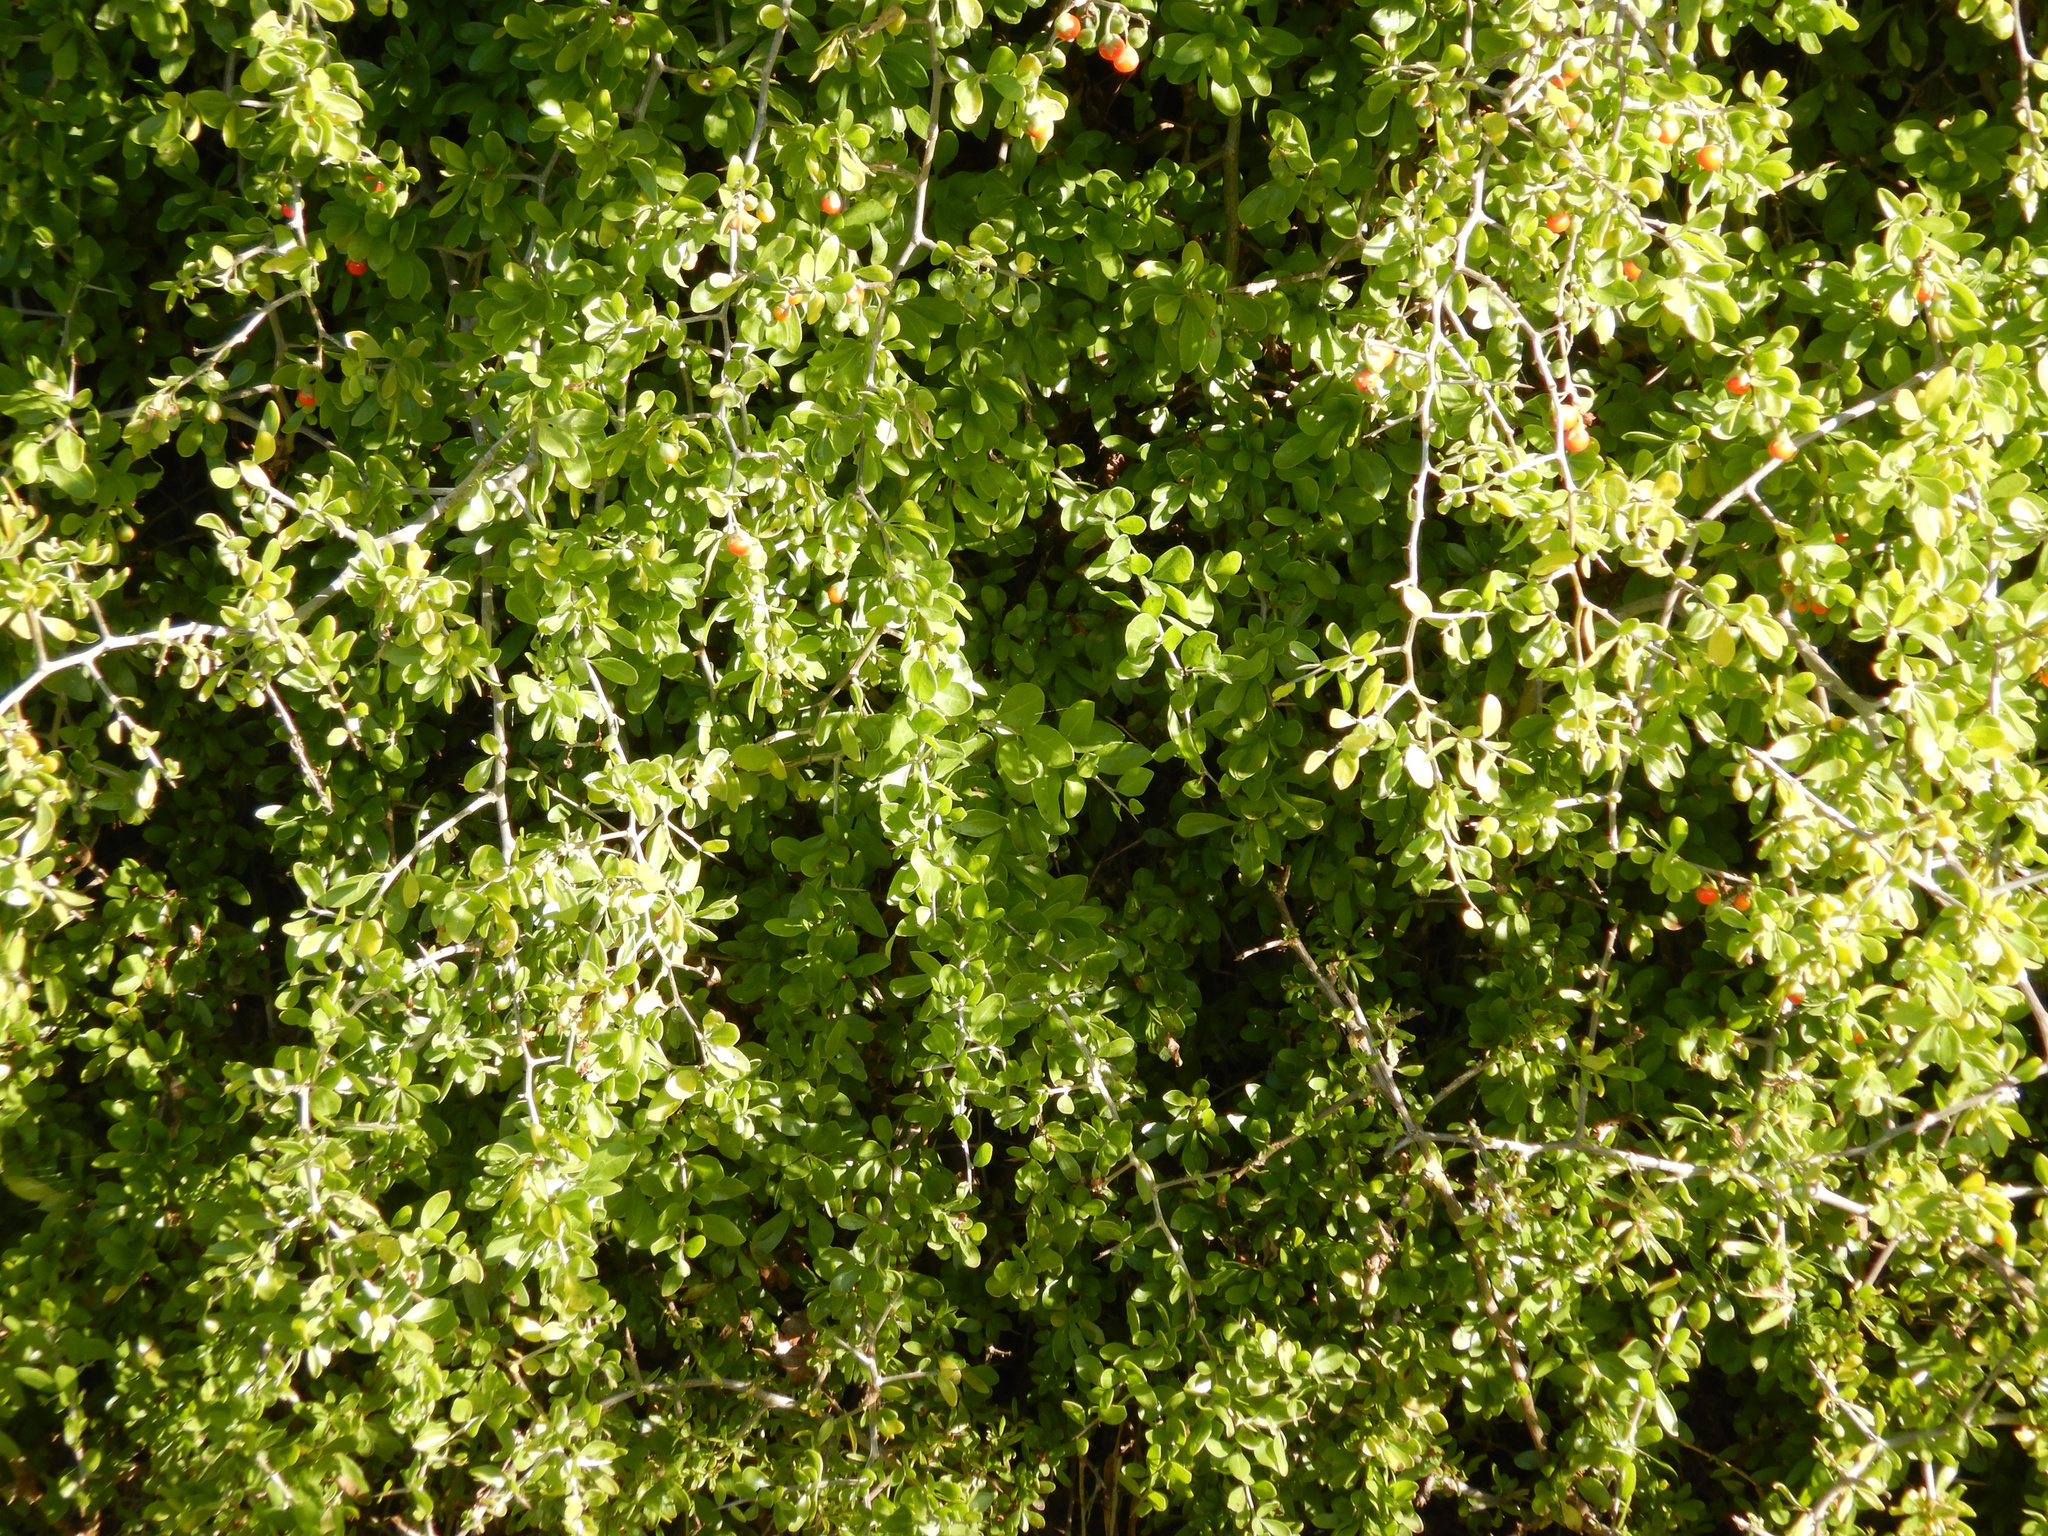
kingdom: Plantae
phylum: Tracheophyta
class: Magnoliopsida
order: Solanales
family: Solanaceae
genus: Lycium
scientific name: Lycium ferocissimum
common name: African boxthorn
